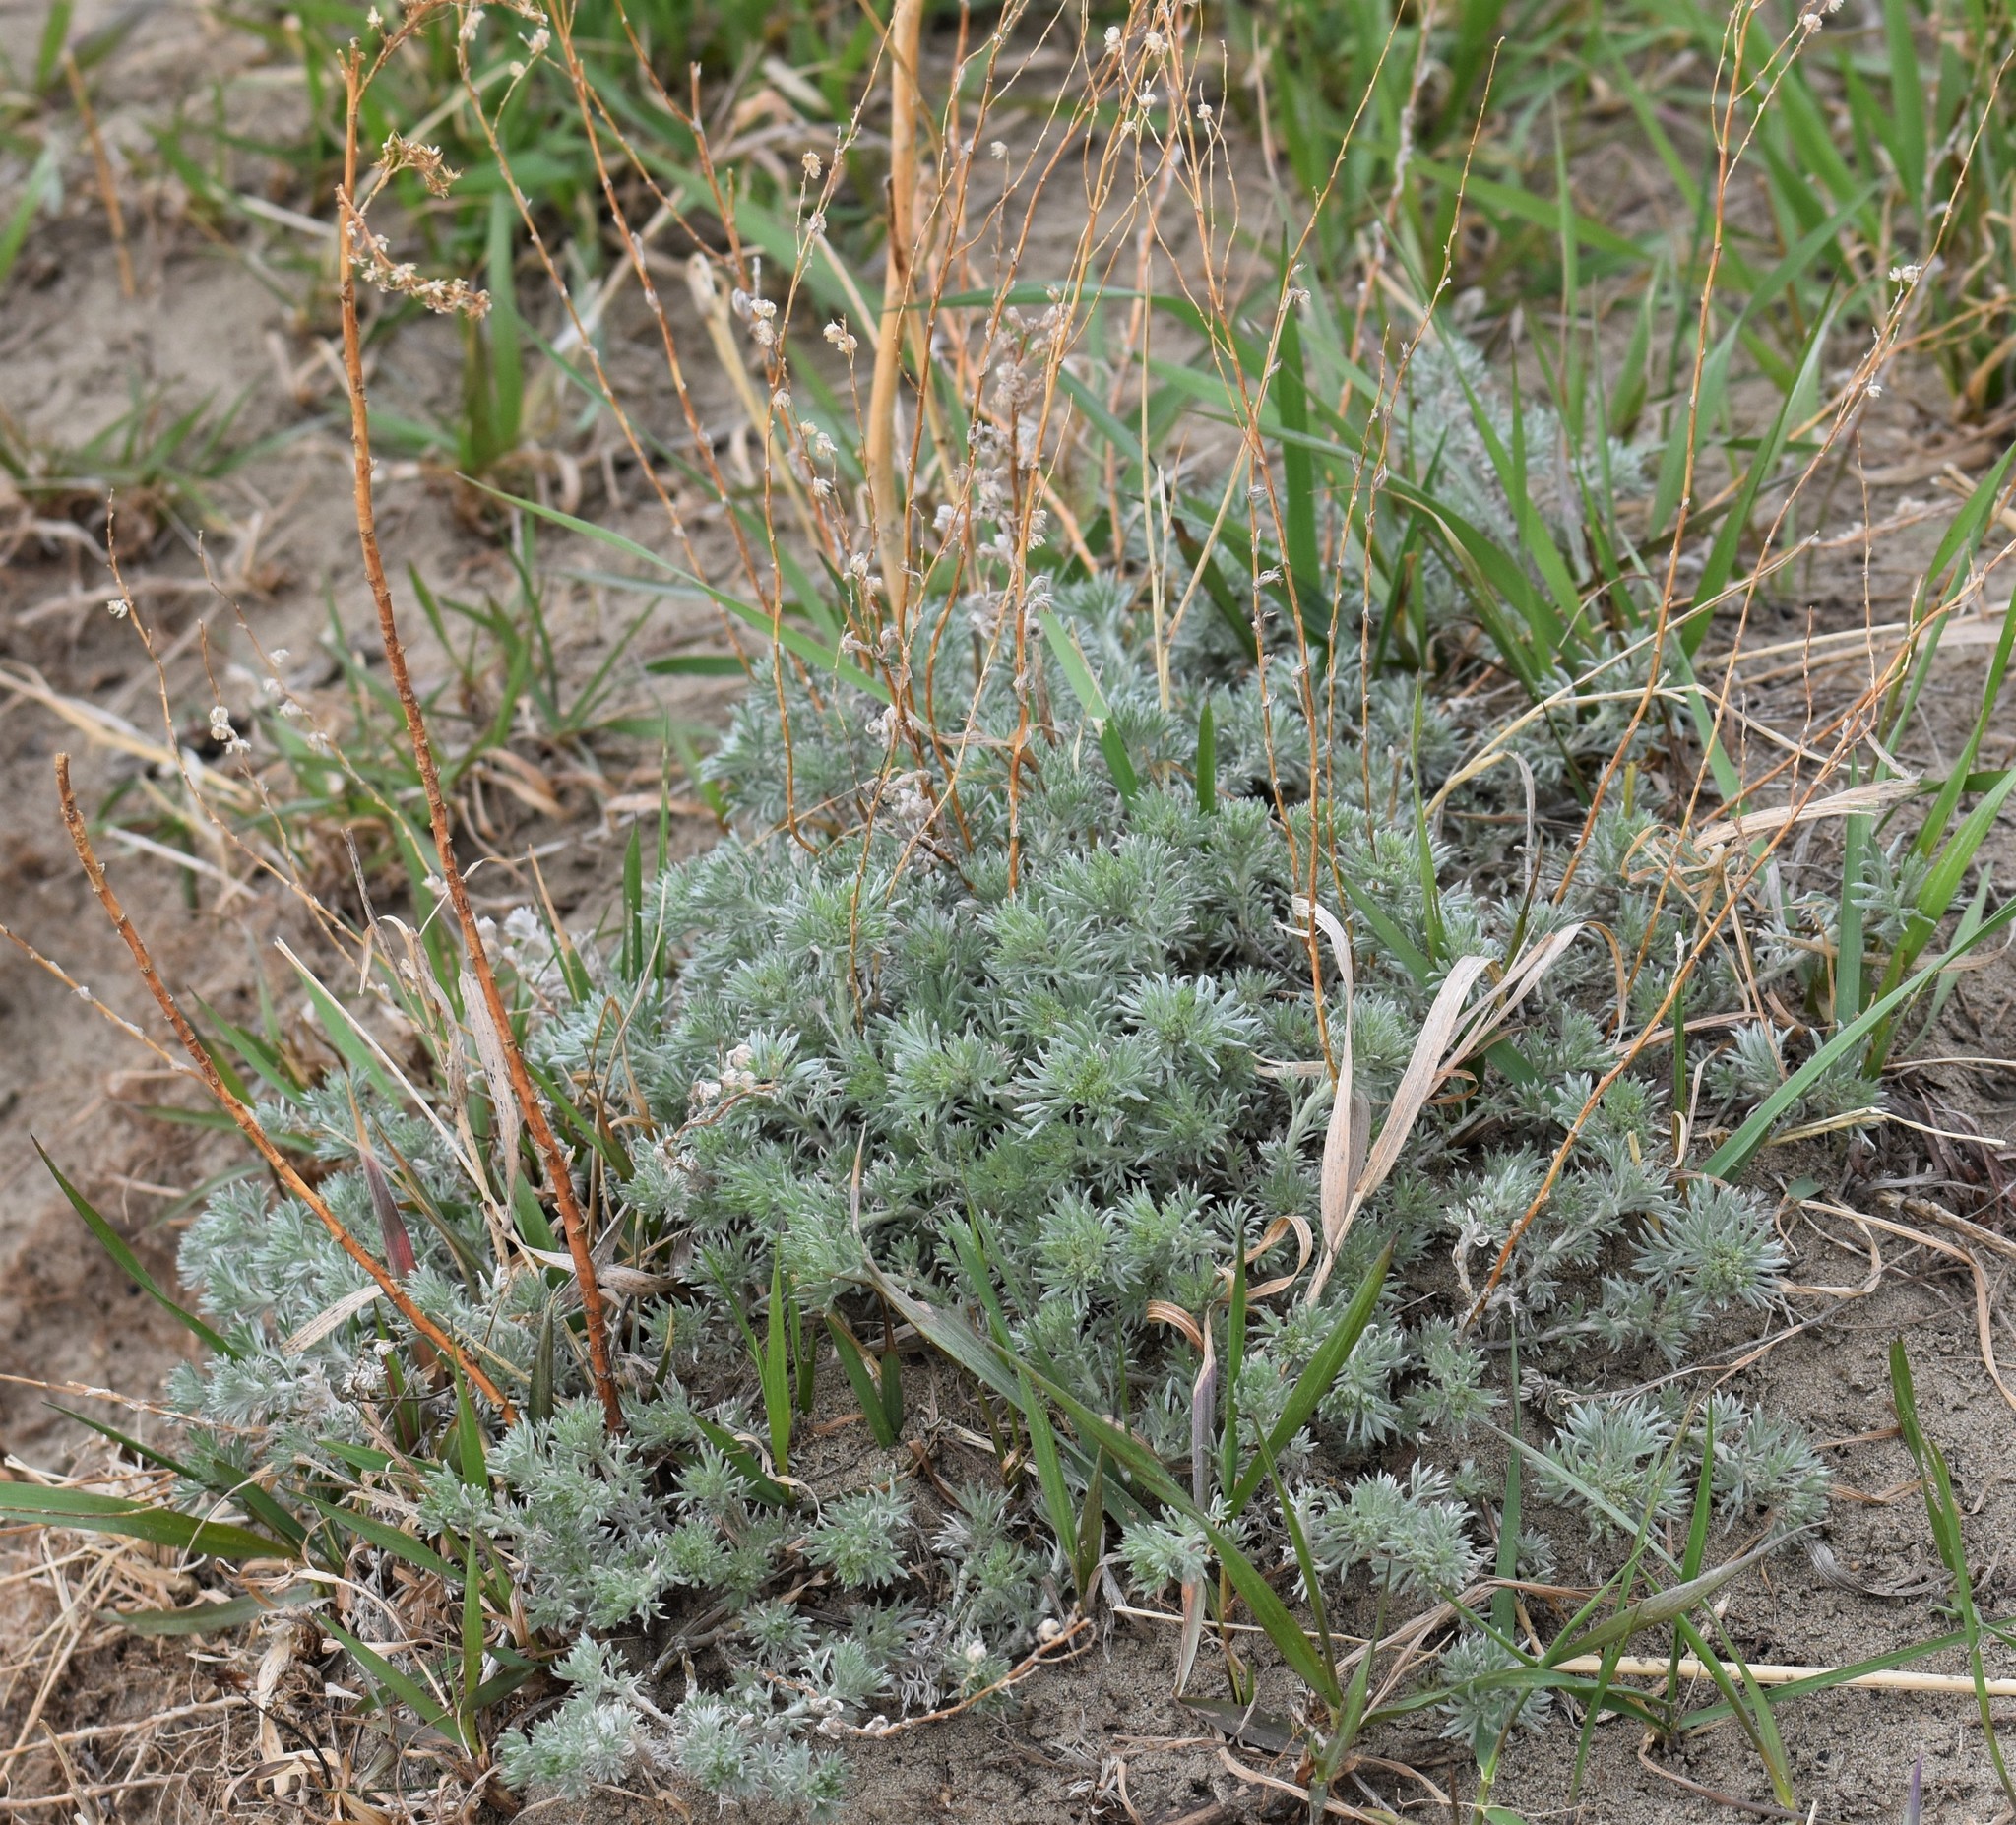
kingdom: Plantae
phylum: Tracheophyta
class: Magnoliopsida
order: Asterales
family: Asteraceae
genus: Artemisia
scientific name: Artemisia frigida
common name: Prairie sagewort
